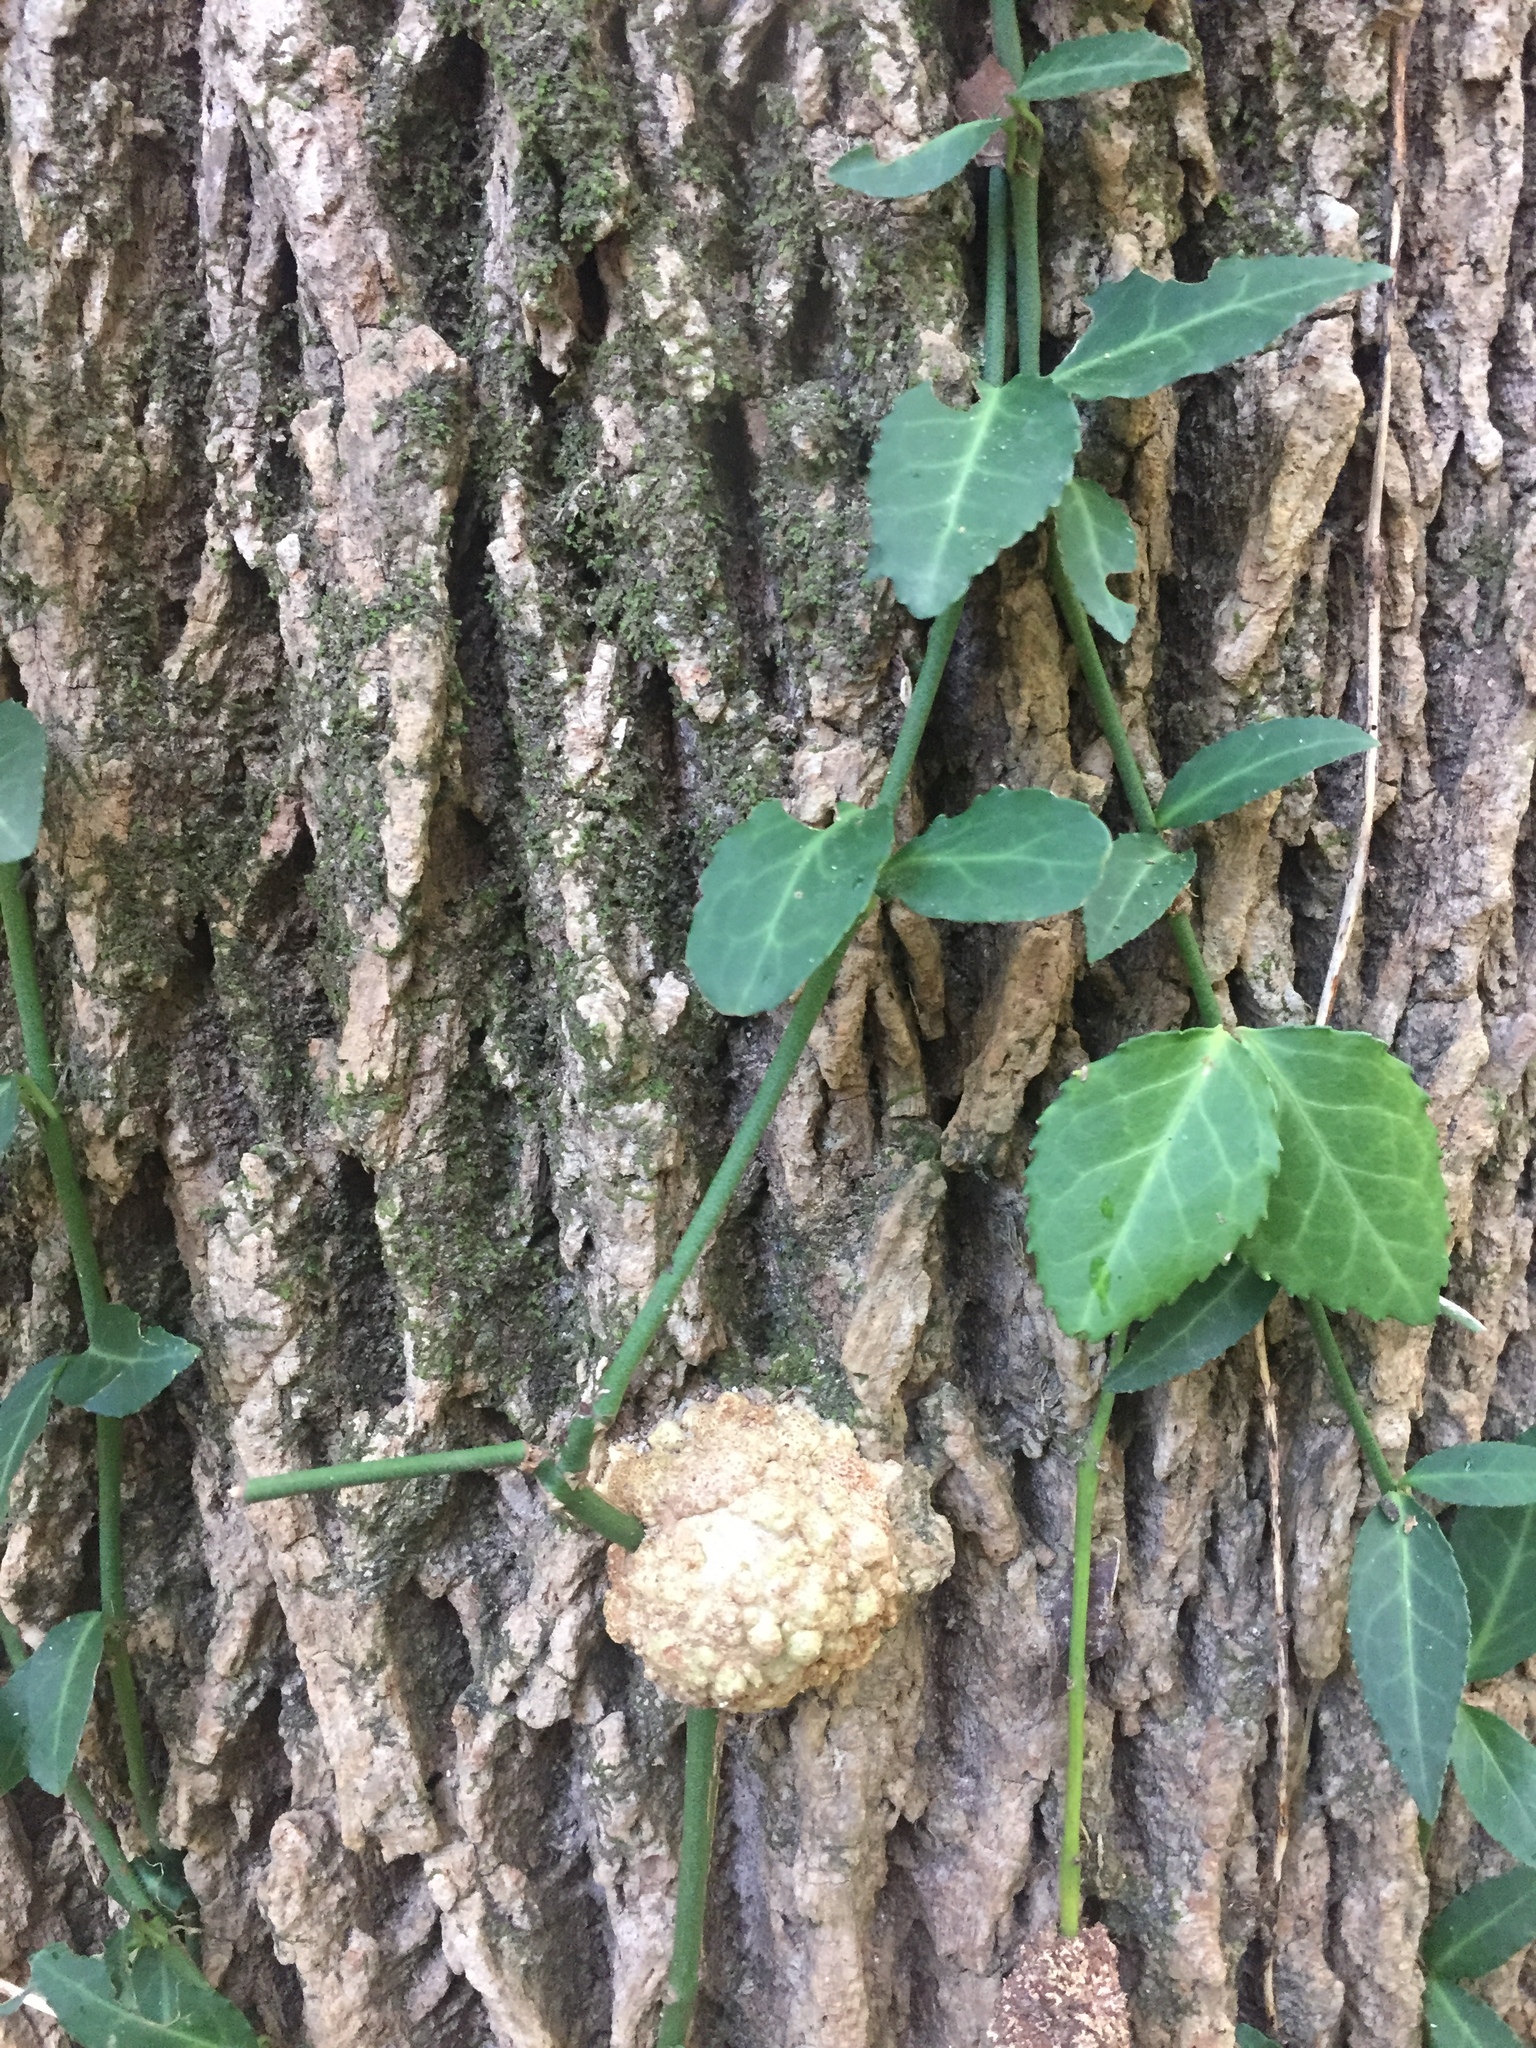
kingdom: Plantae
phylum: Tracheophyta
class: Magnoliopsida
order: Celastrales
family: Celastraceae
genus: Euonymus
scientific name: Euonymus fortunei
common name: Climbing euonymus
